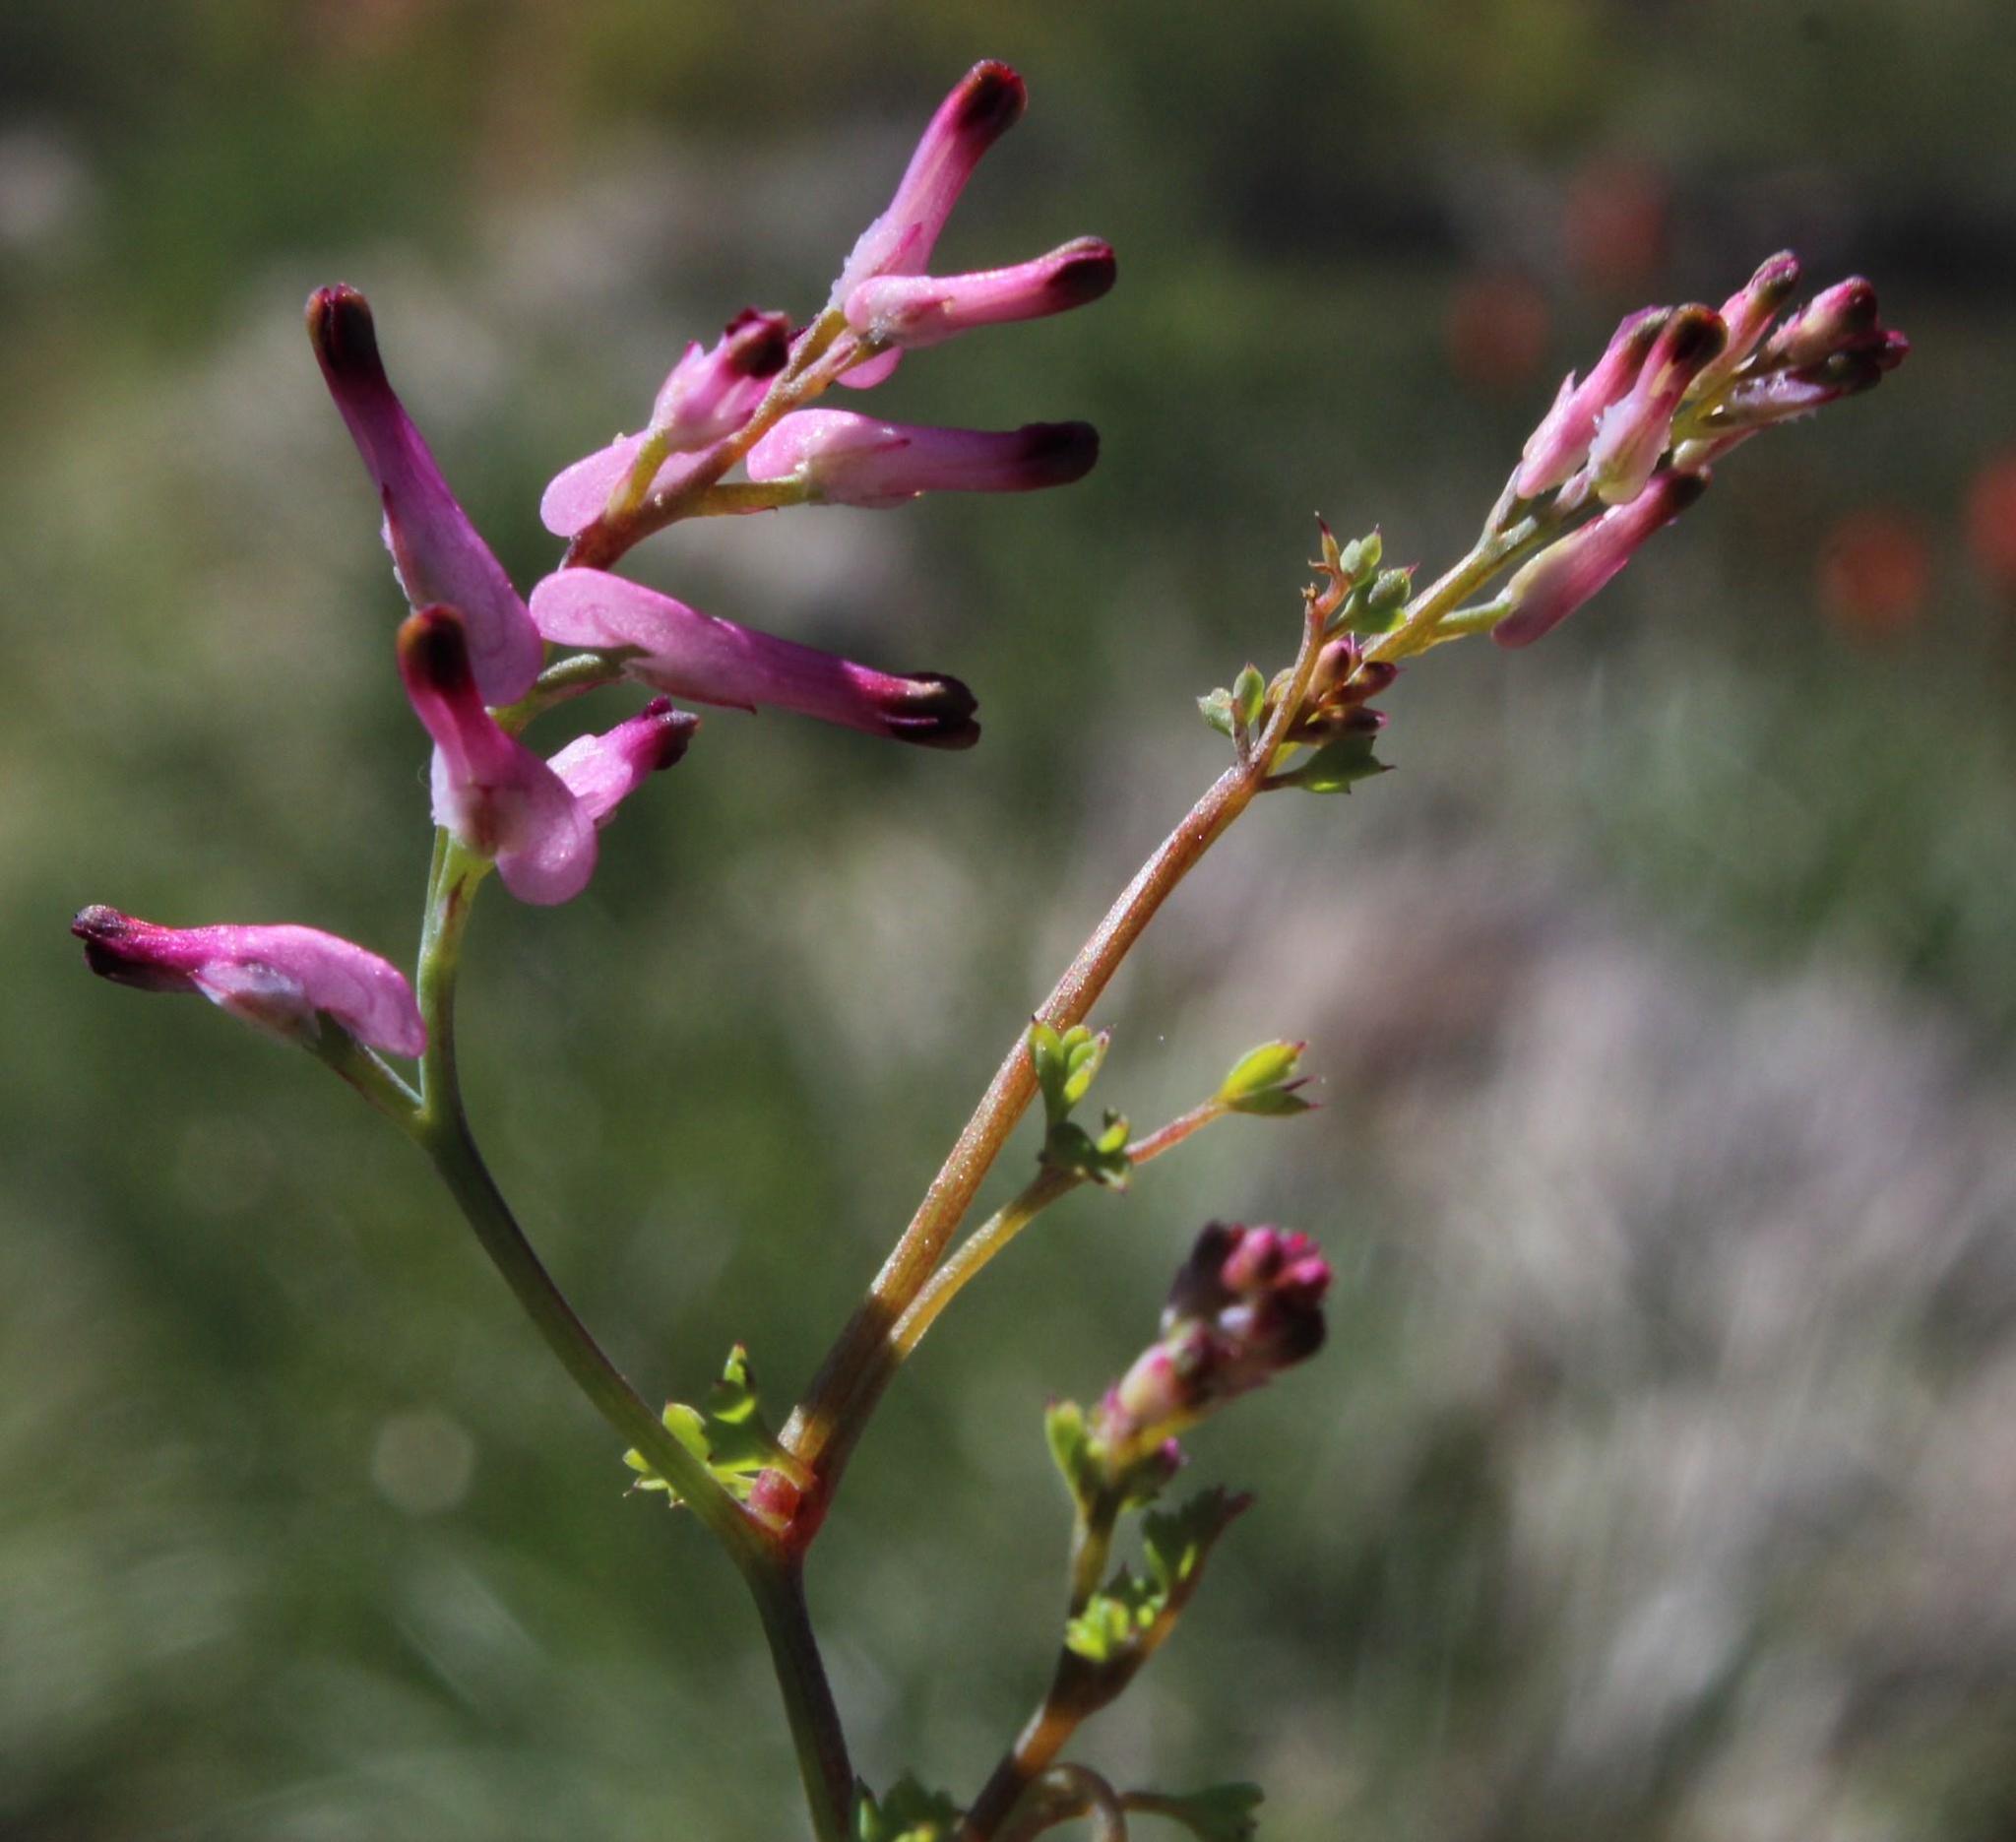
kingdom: Plantae
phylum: Tracheophyta
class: Magnoliopsida
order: Ranunculales
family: Papaveraceae
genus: Fumaria
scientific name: Fumaria muralis
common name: Common ramping-fumitory
